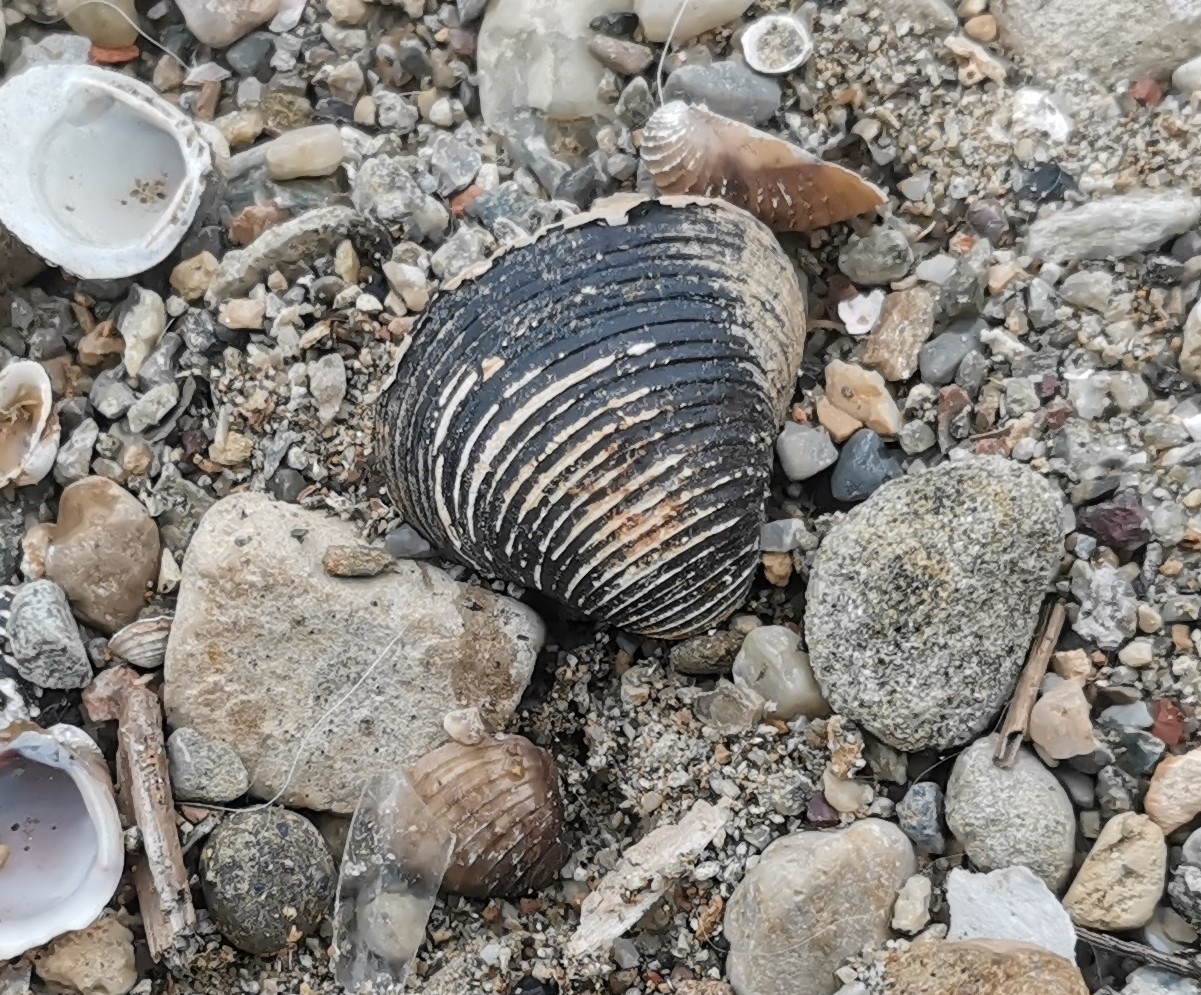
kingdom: Animalia
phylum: Mollusca
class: Bivalvia
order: Venerida
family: Cyrenidae
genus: Corbicula
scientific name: Corbicula fluminea
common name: Asian clam
